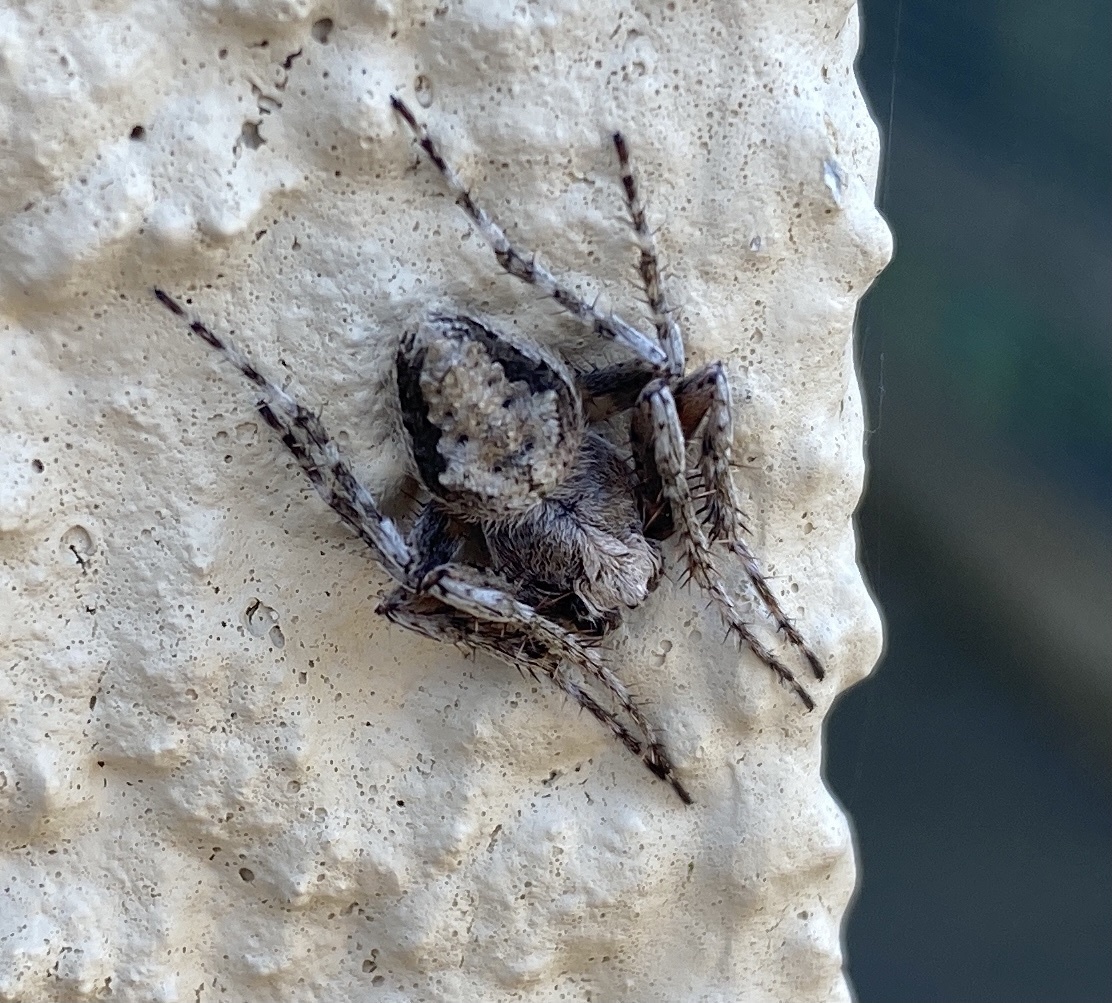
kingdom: Animalia
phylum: Arthropoda
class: Arachnida
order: Araneae
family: Araneidae
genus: Eriophora
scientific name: Eriophora pustulosa
